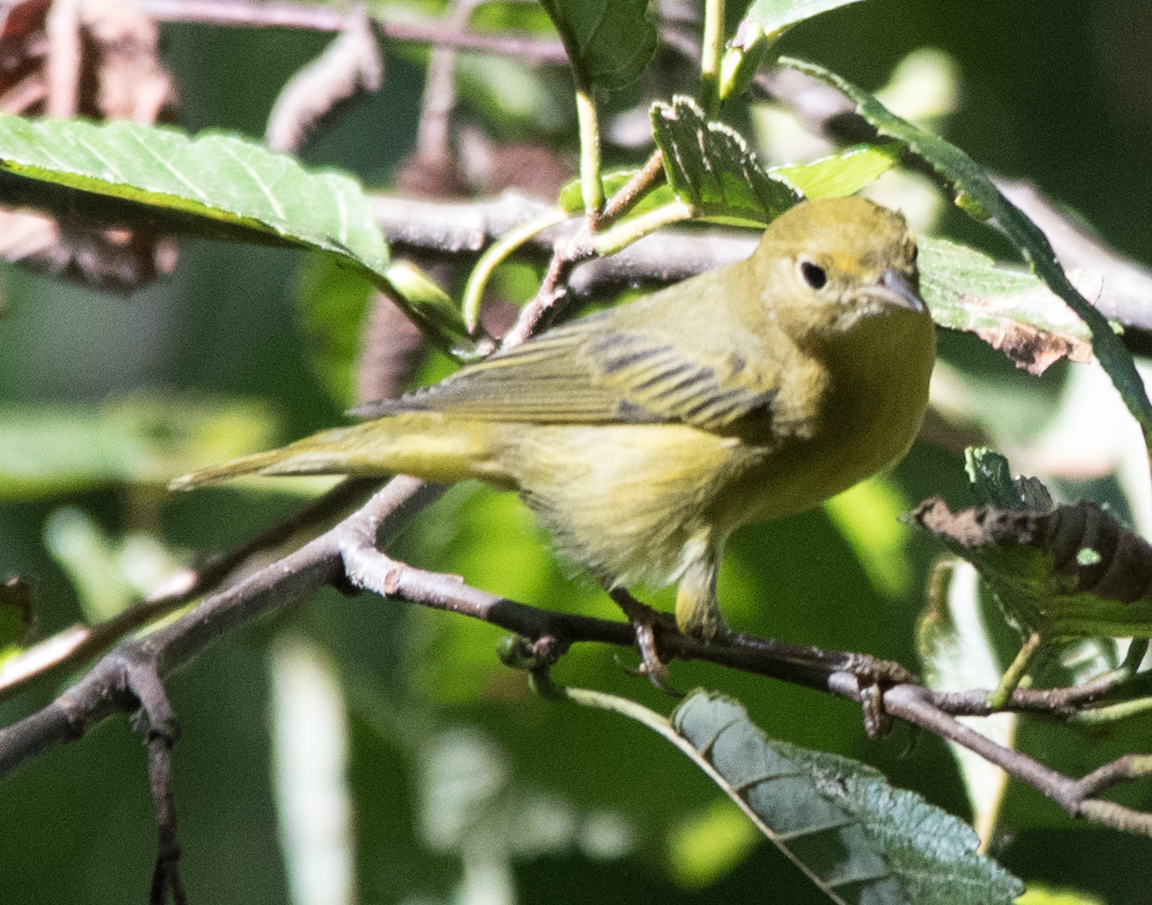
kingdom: Animalia
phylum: Chordata
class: Aves
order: Passeriformes
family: Parulidae
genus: Setophaga
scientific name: Setophaga petechia
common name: Yellow warbler
